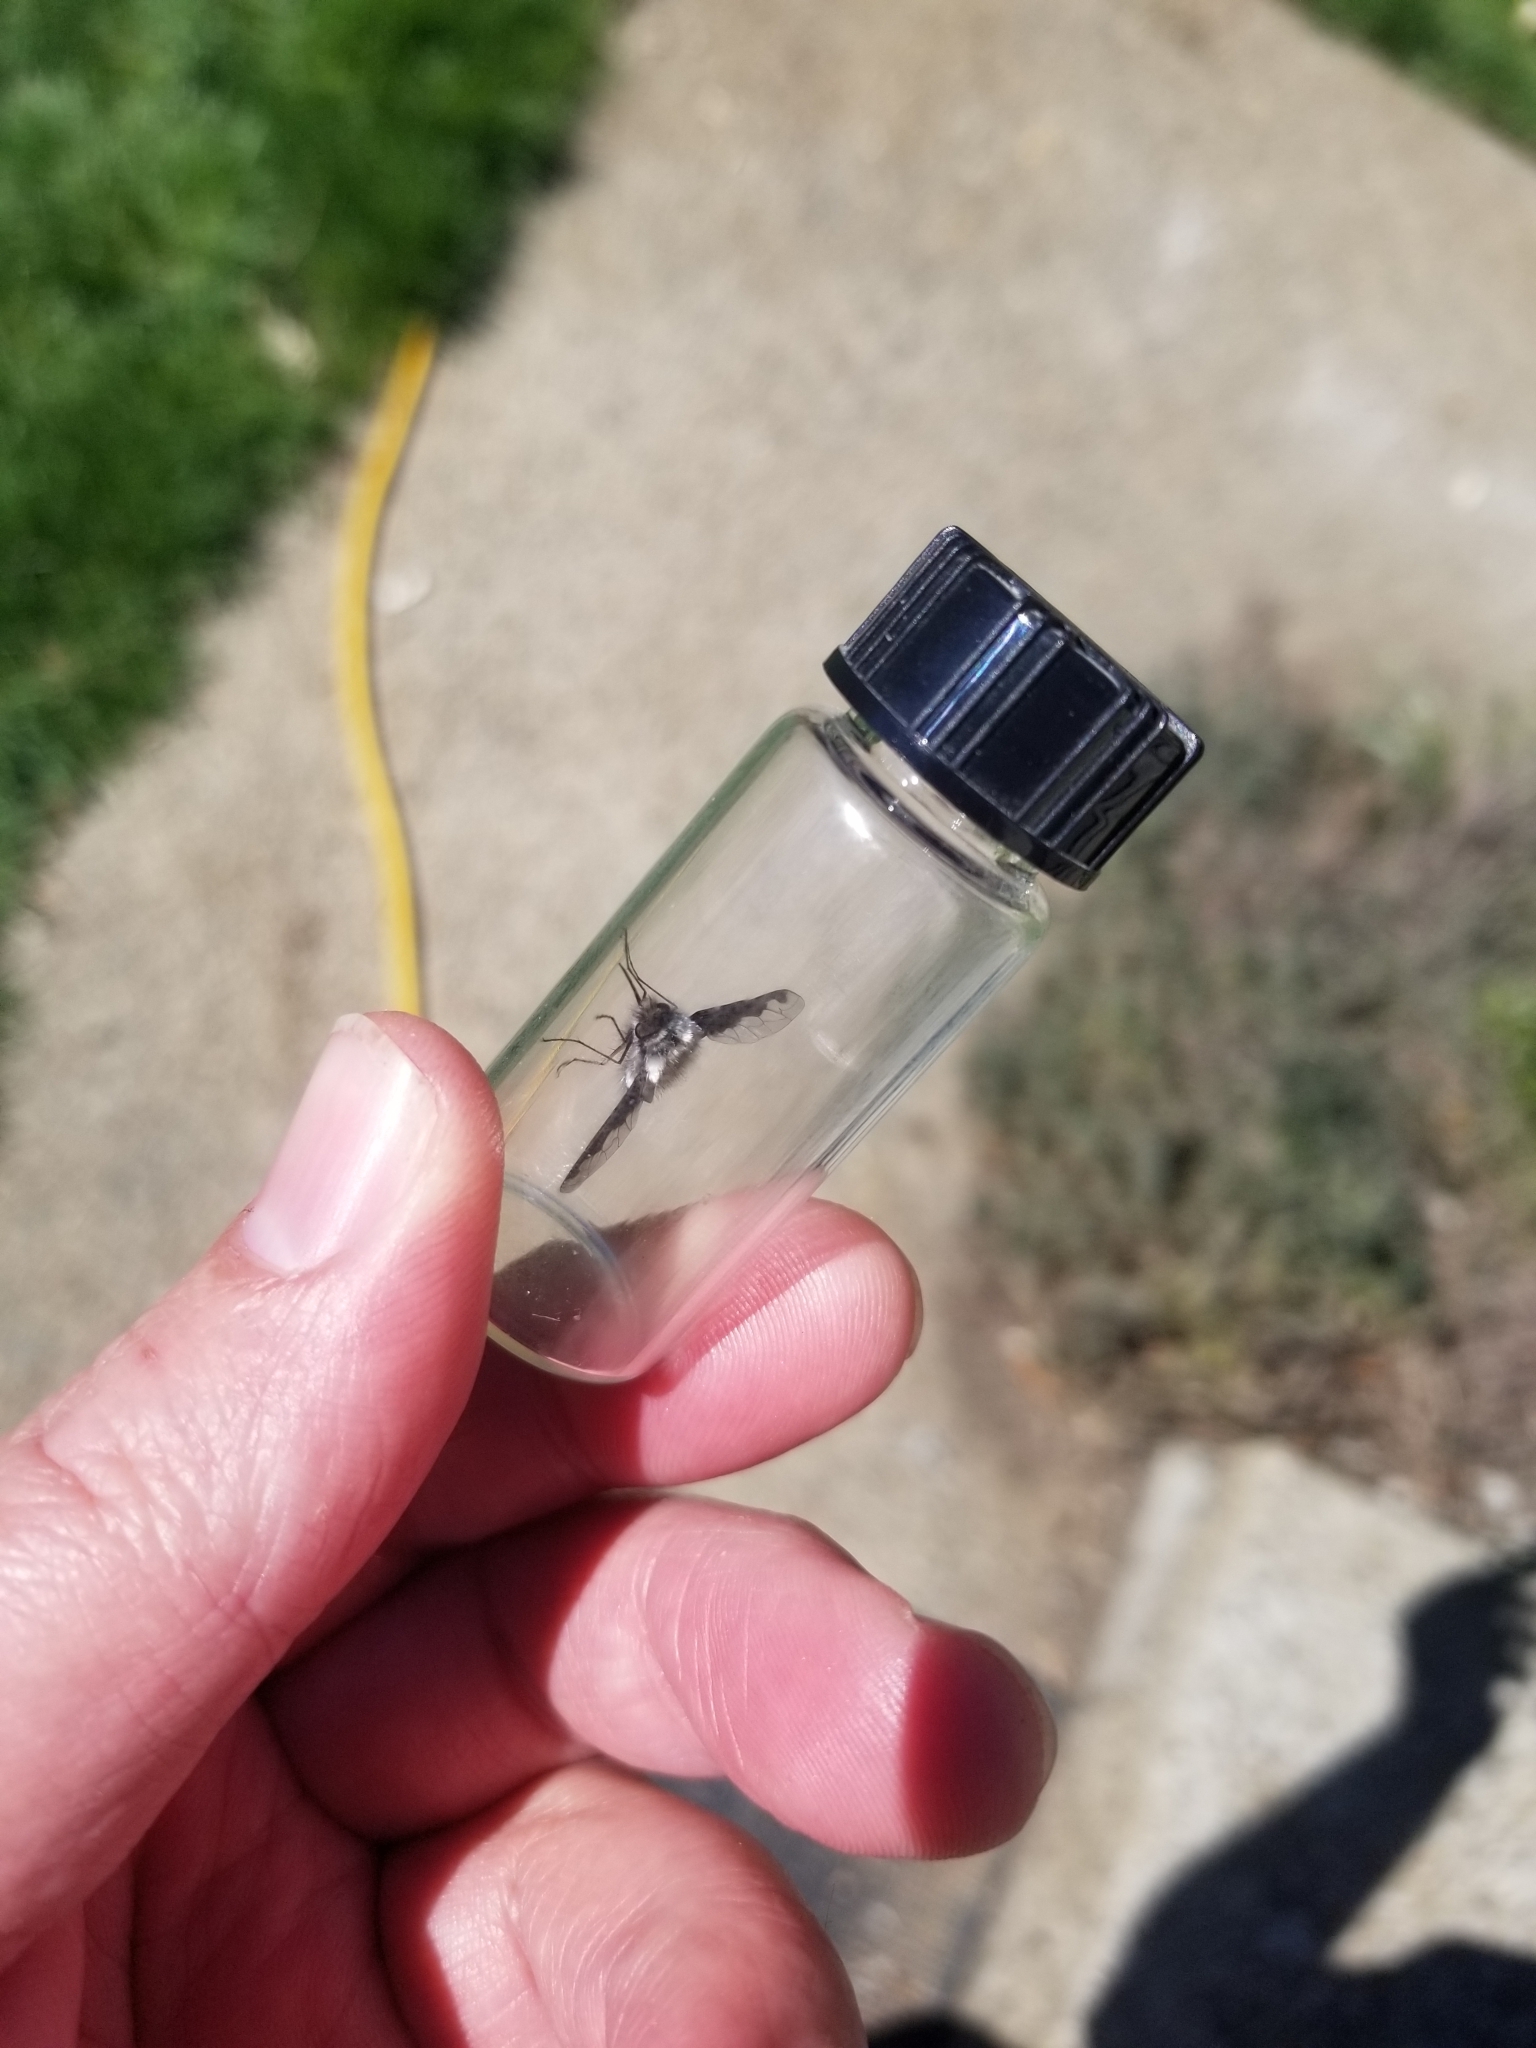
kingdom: Animalia
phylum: Arthropoda
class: Insecta
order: Diptera
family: Bombyliidae
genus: Bombylius
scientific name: Bombylius major
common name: Bee fly
